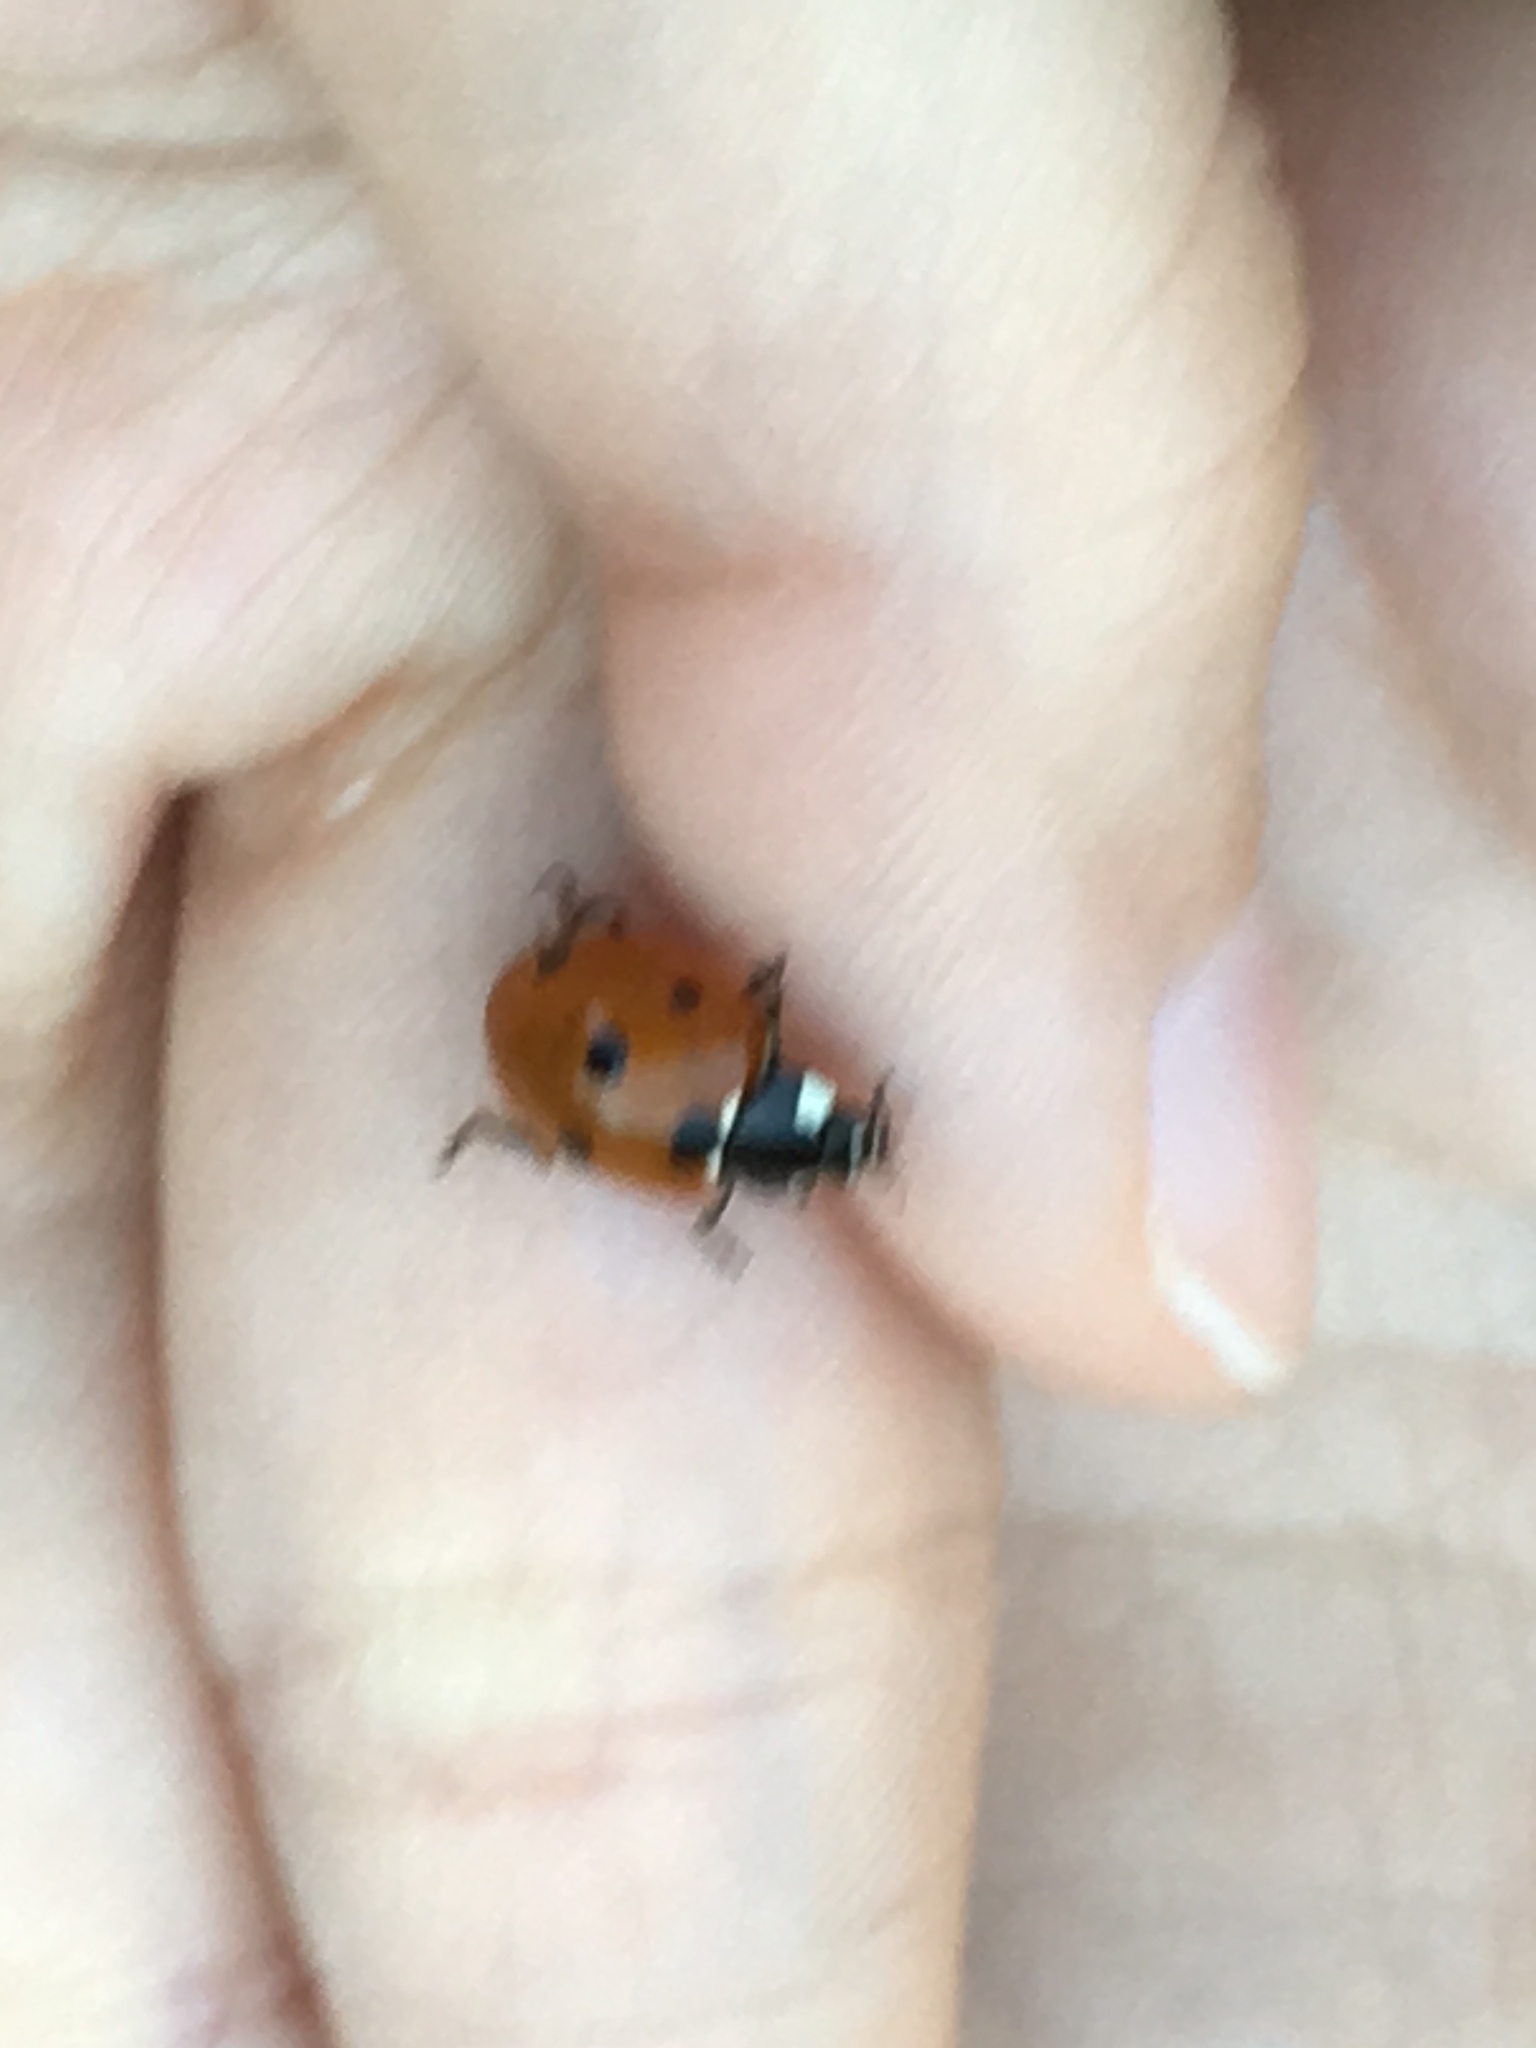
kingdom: Animalia
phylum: Arthropoda
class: Insecta
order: Coleoptera
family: Coccinellidae
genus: Coccinella
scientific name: Coccinella septempunctata
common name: Sevenspotted lady beetle
